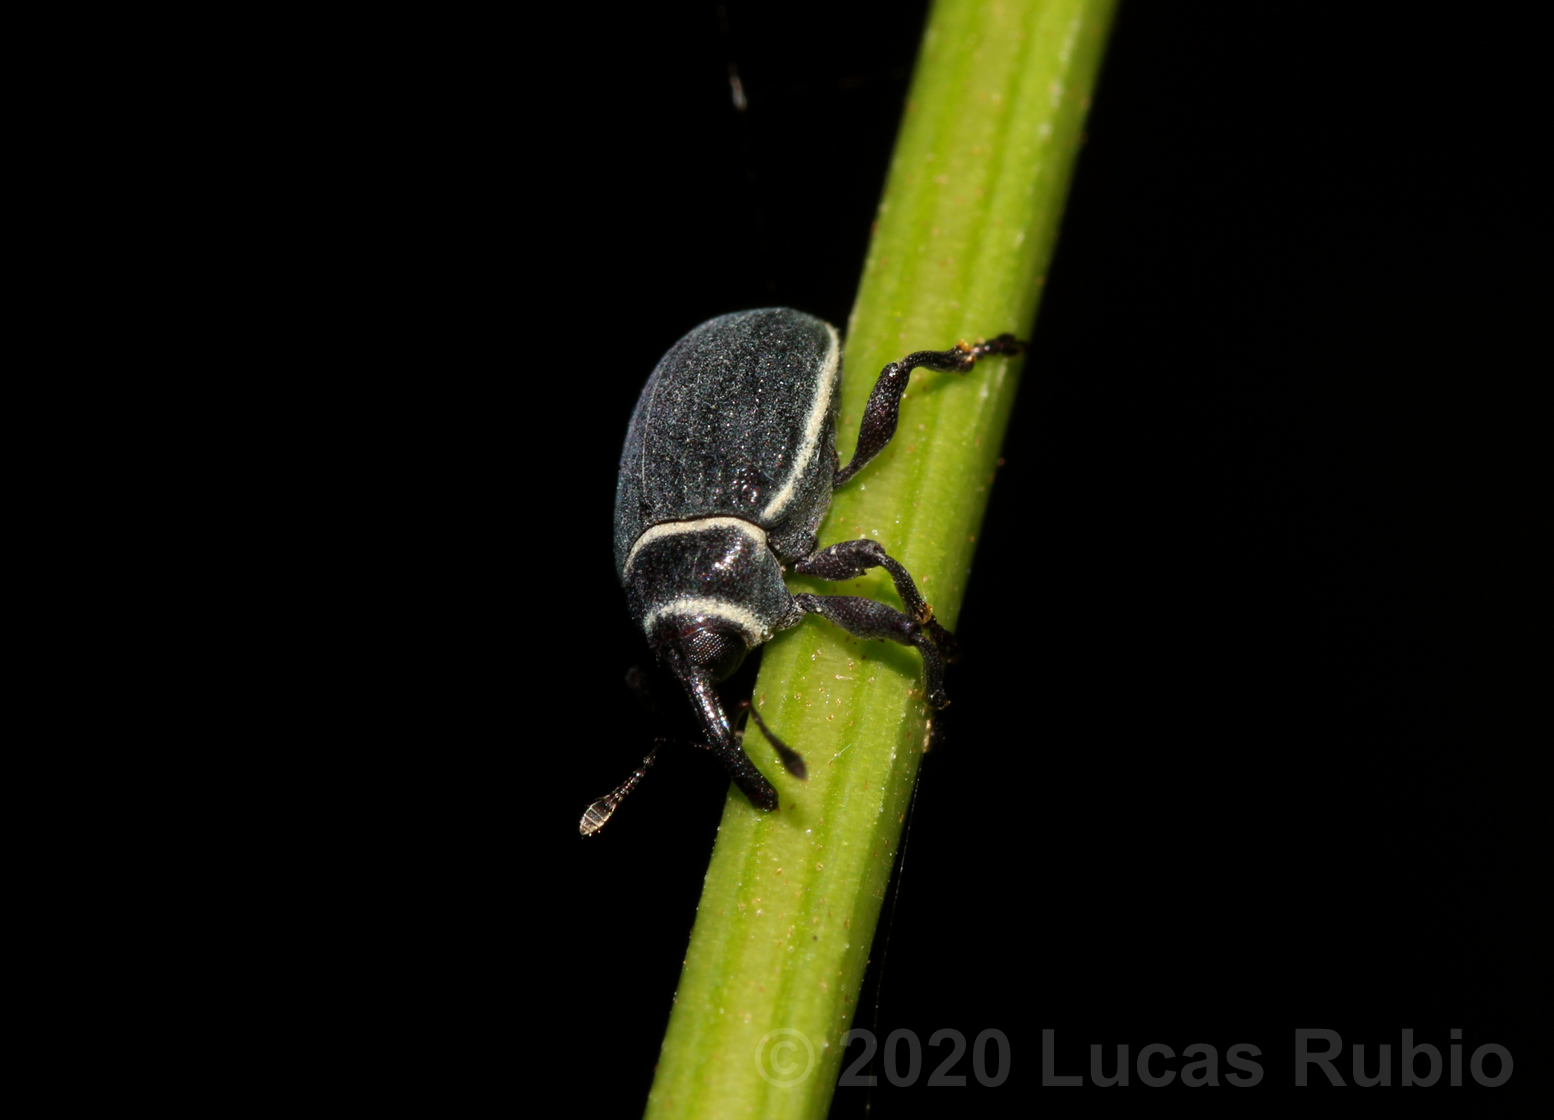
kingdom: Animalia
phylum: Arthropoda
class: Insecta
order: Coleoptera
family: Curculionidae
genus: Rhyssomatus
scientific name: Rhyssomatus marginatus
